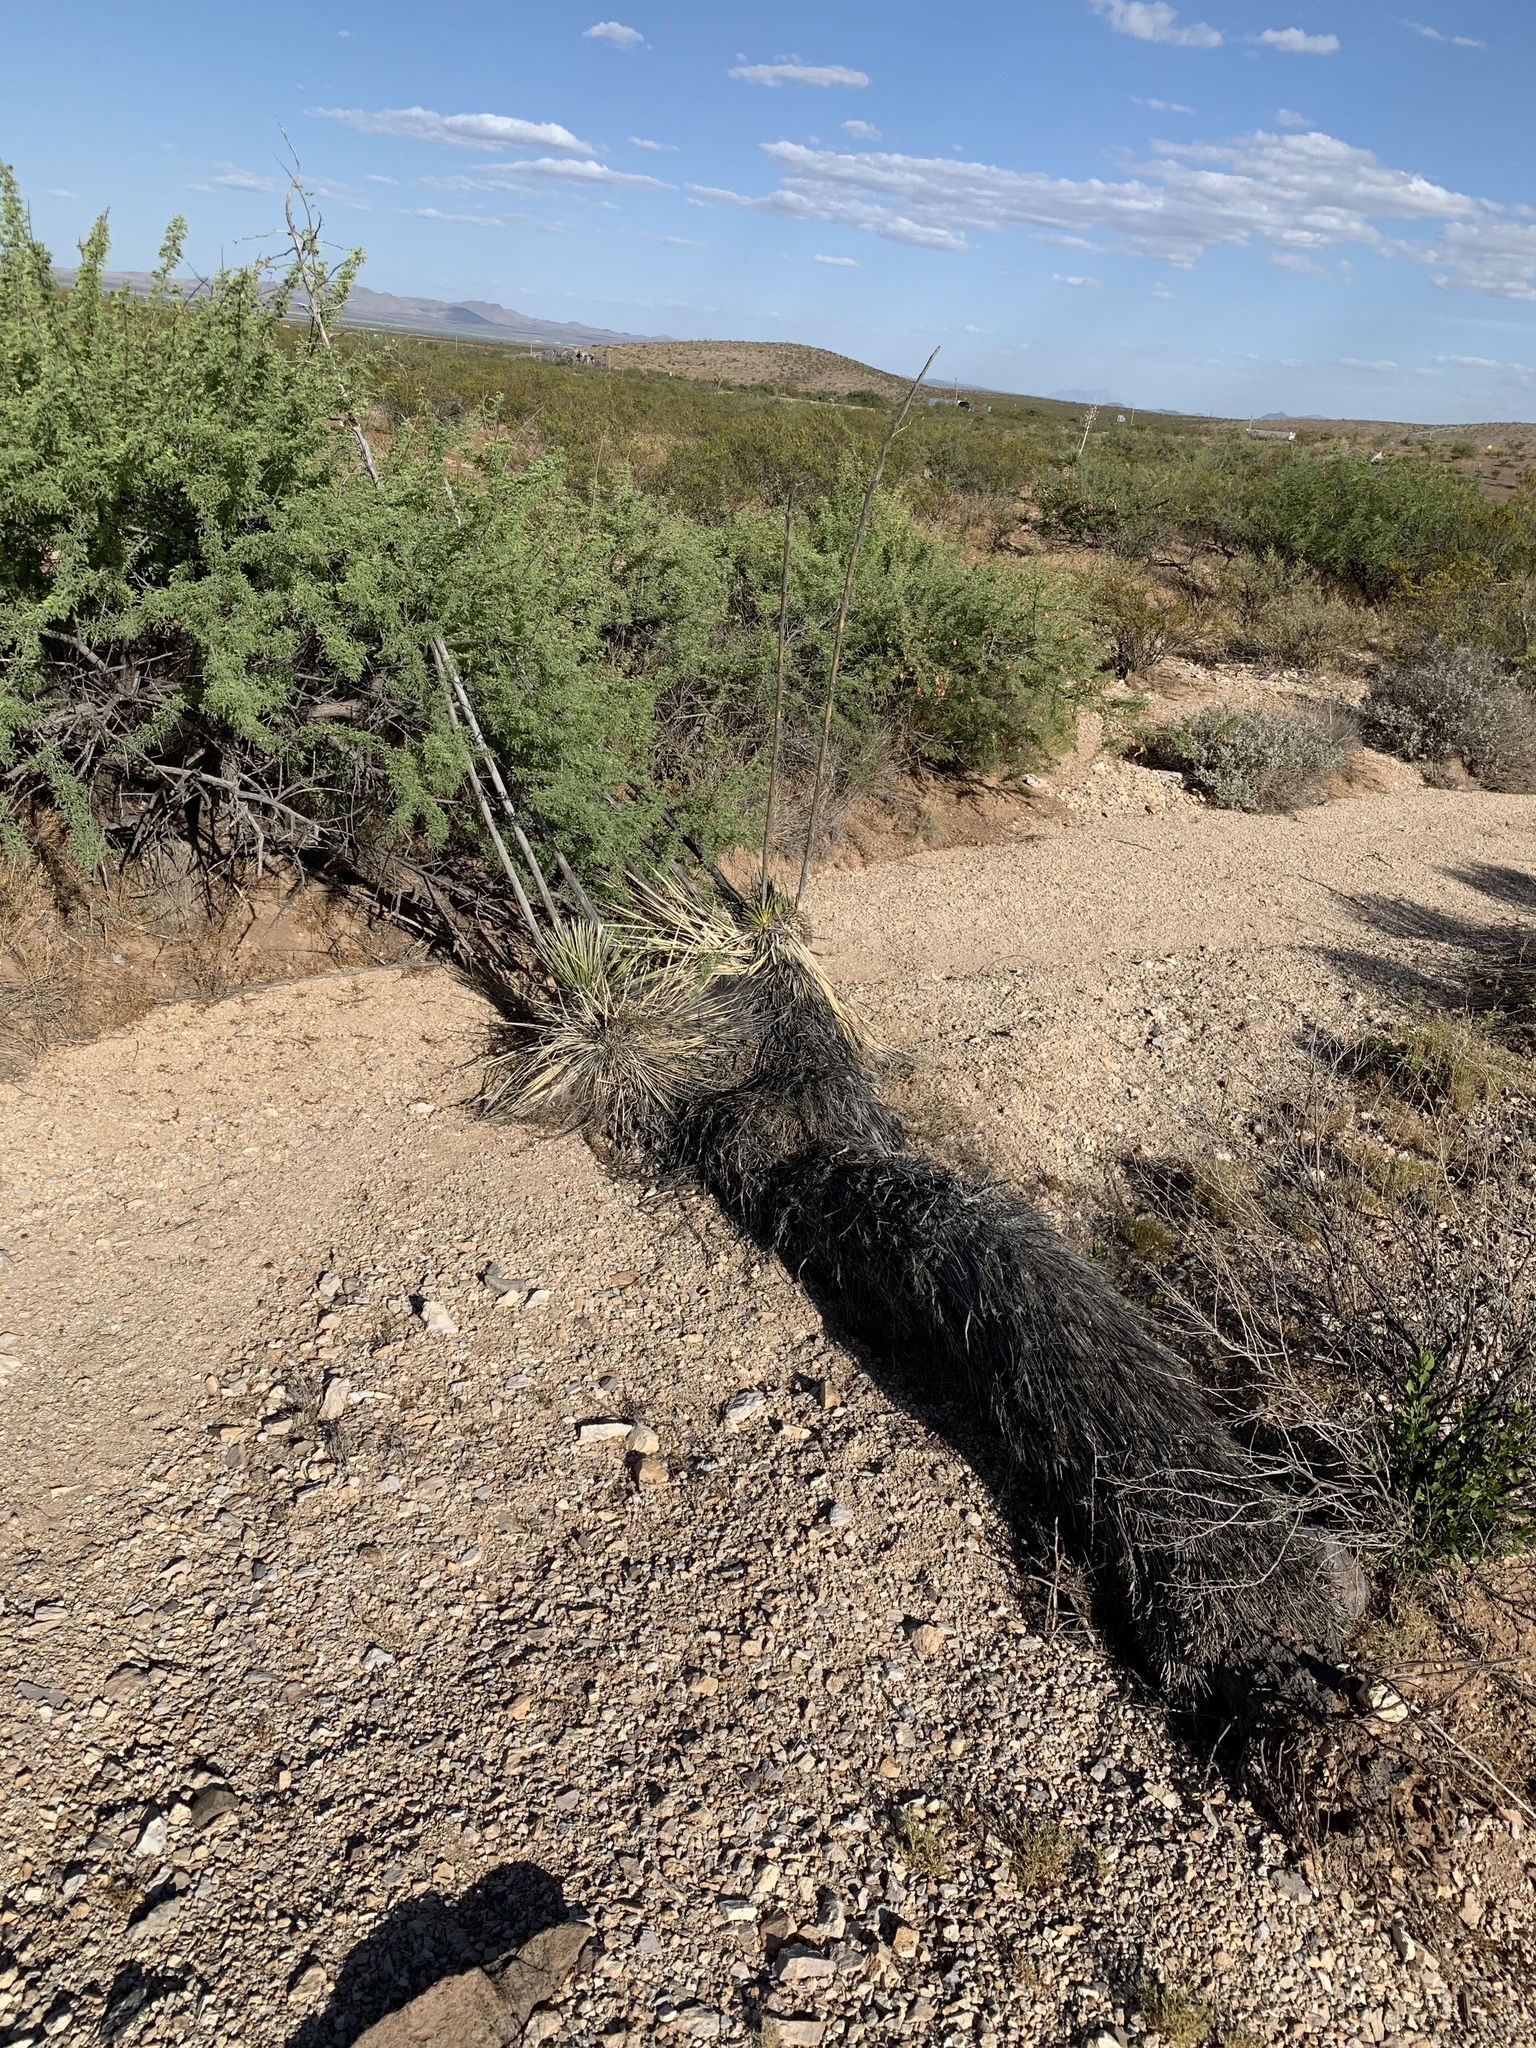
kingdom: Plantae
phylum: Tracheophyta
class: Liliopsida
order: Asparagales
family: Asparagaceae
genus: Yucca
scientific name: Yucca elata
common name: Palmella
